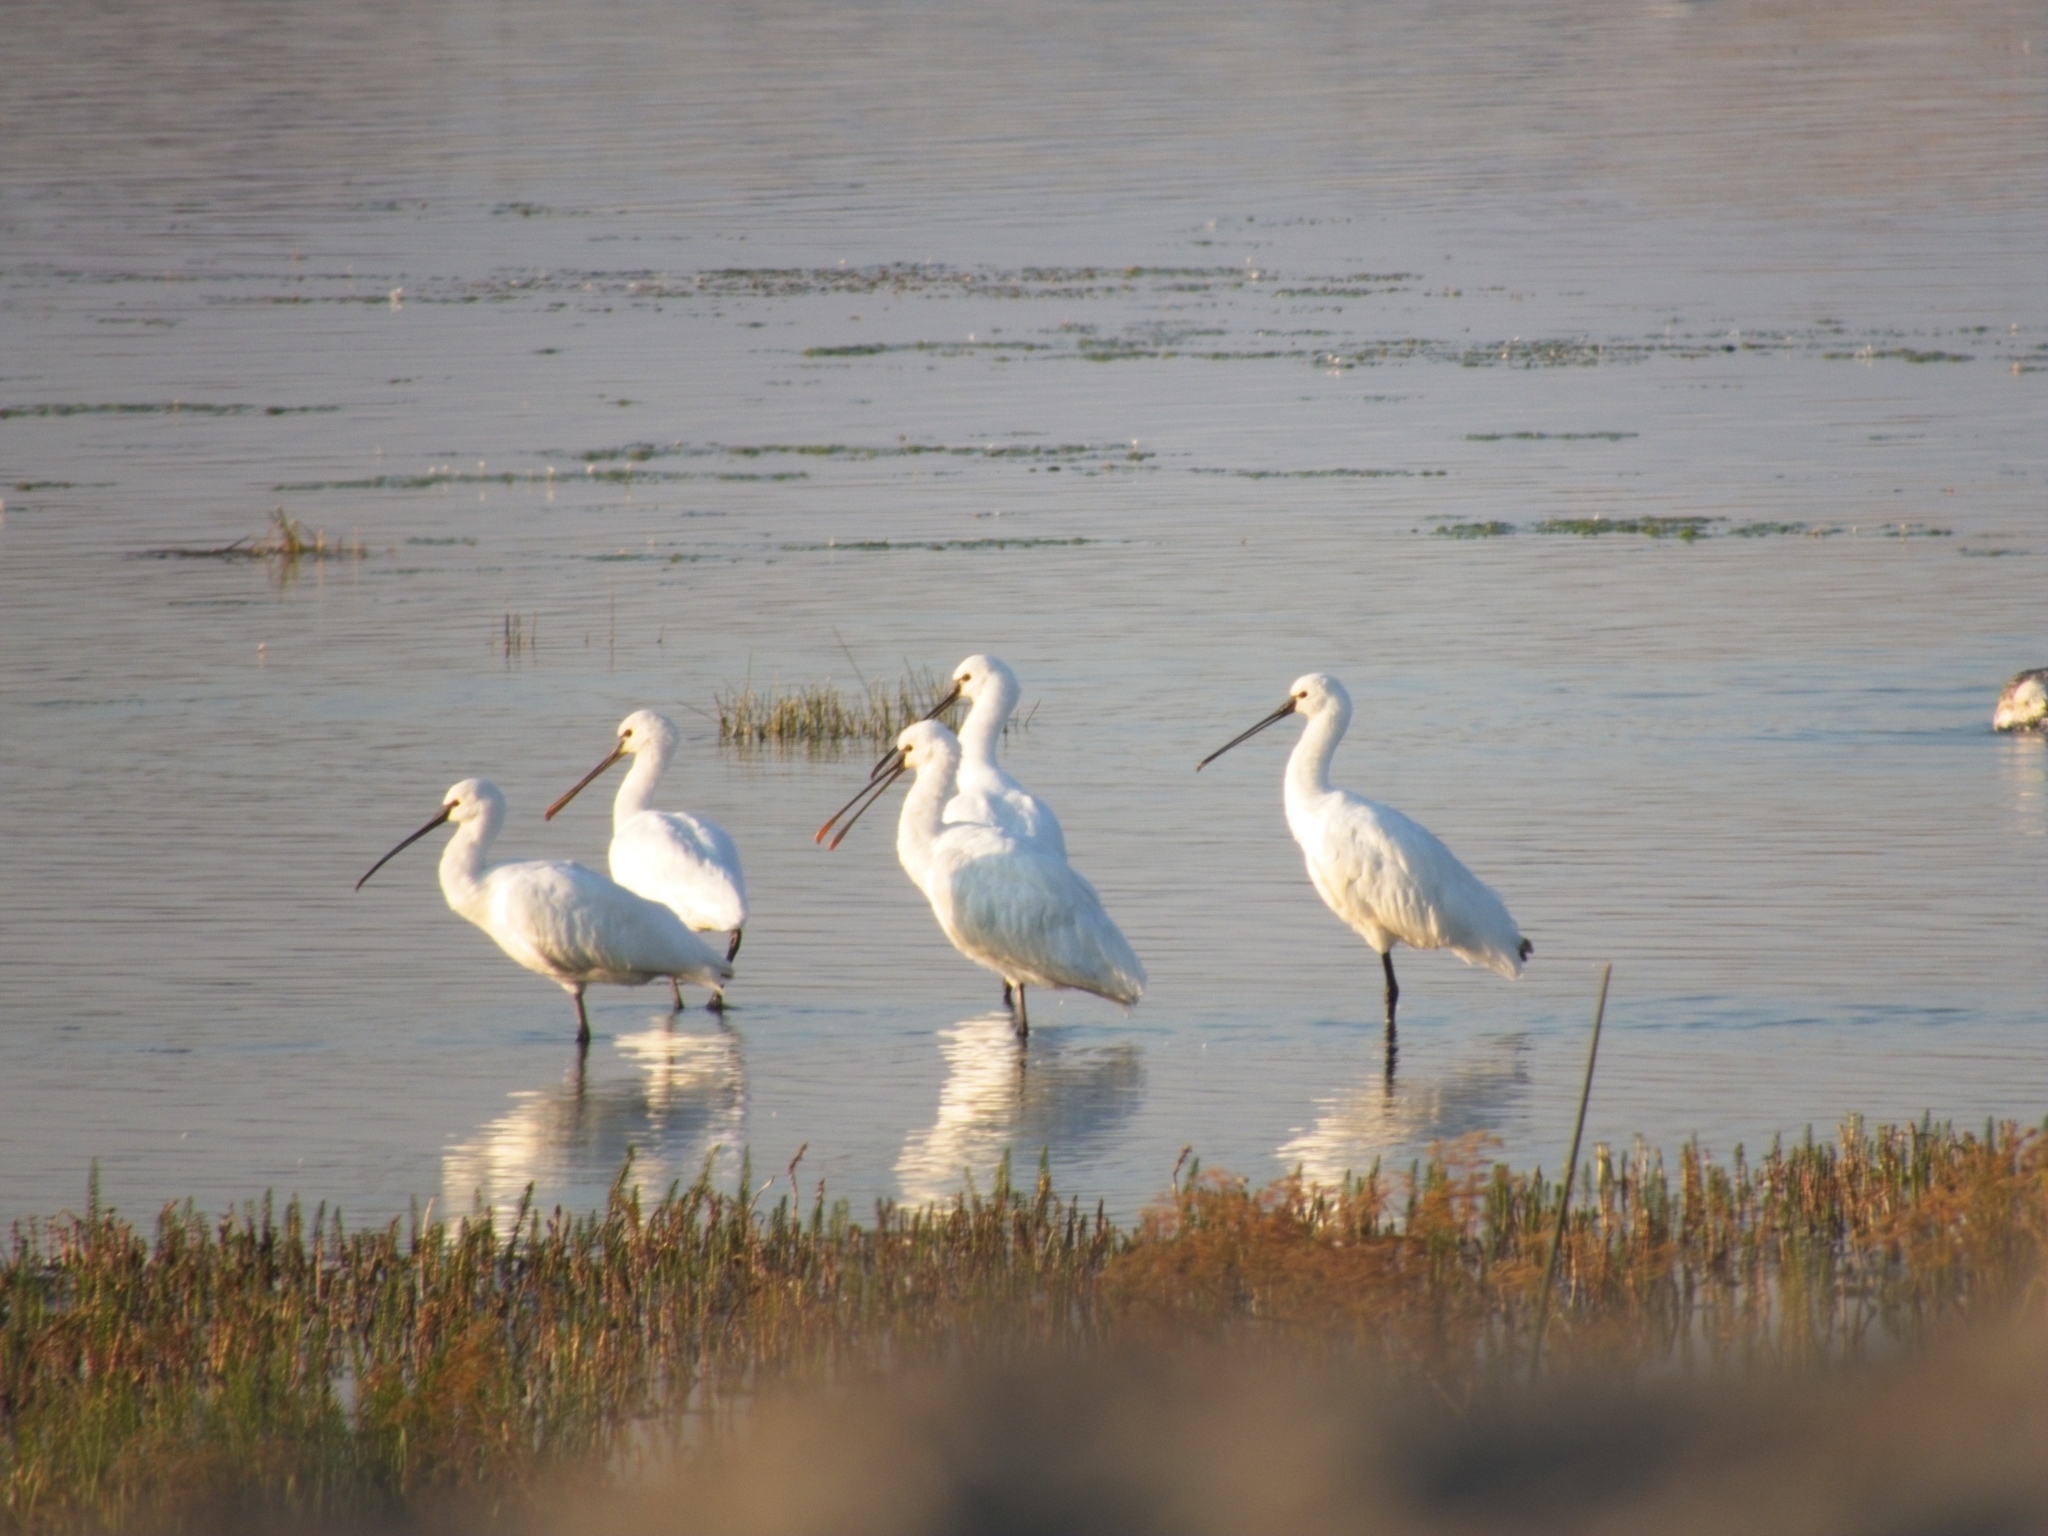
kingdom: Animalia
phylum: Chordata
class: Aves
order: Pelecaniformes
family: Threskiornithidae
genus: Platalea
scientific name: Platalea leucorodia
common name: Eurasian spoonbill
